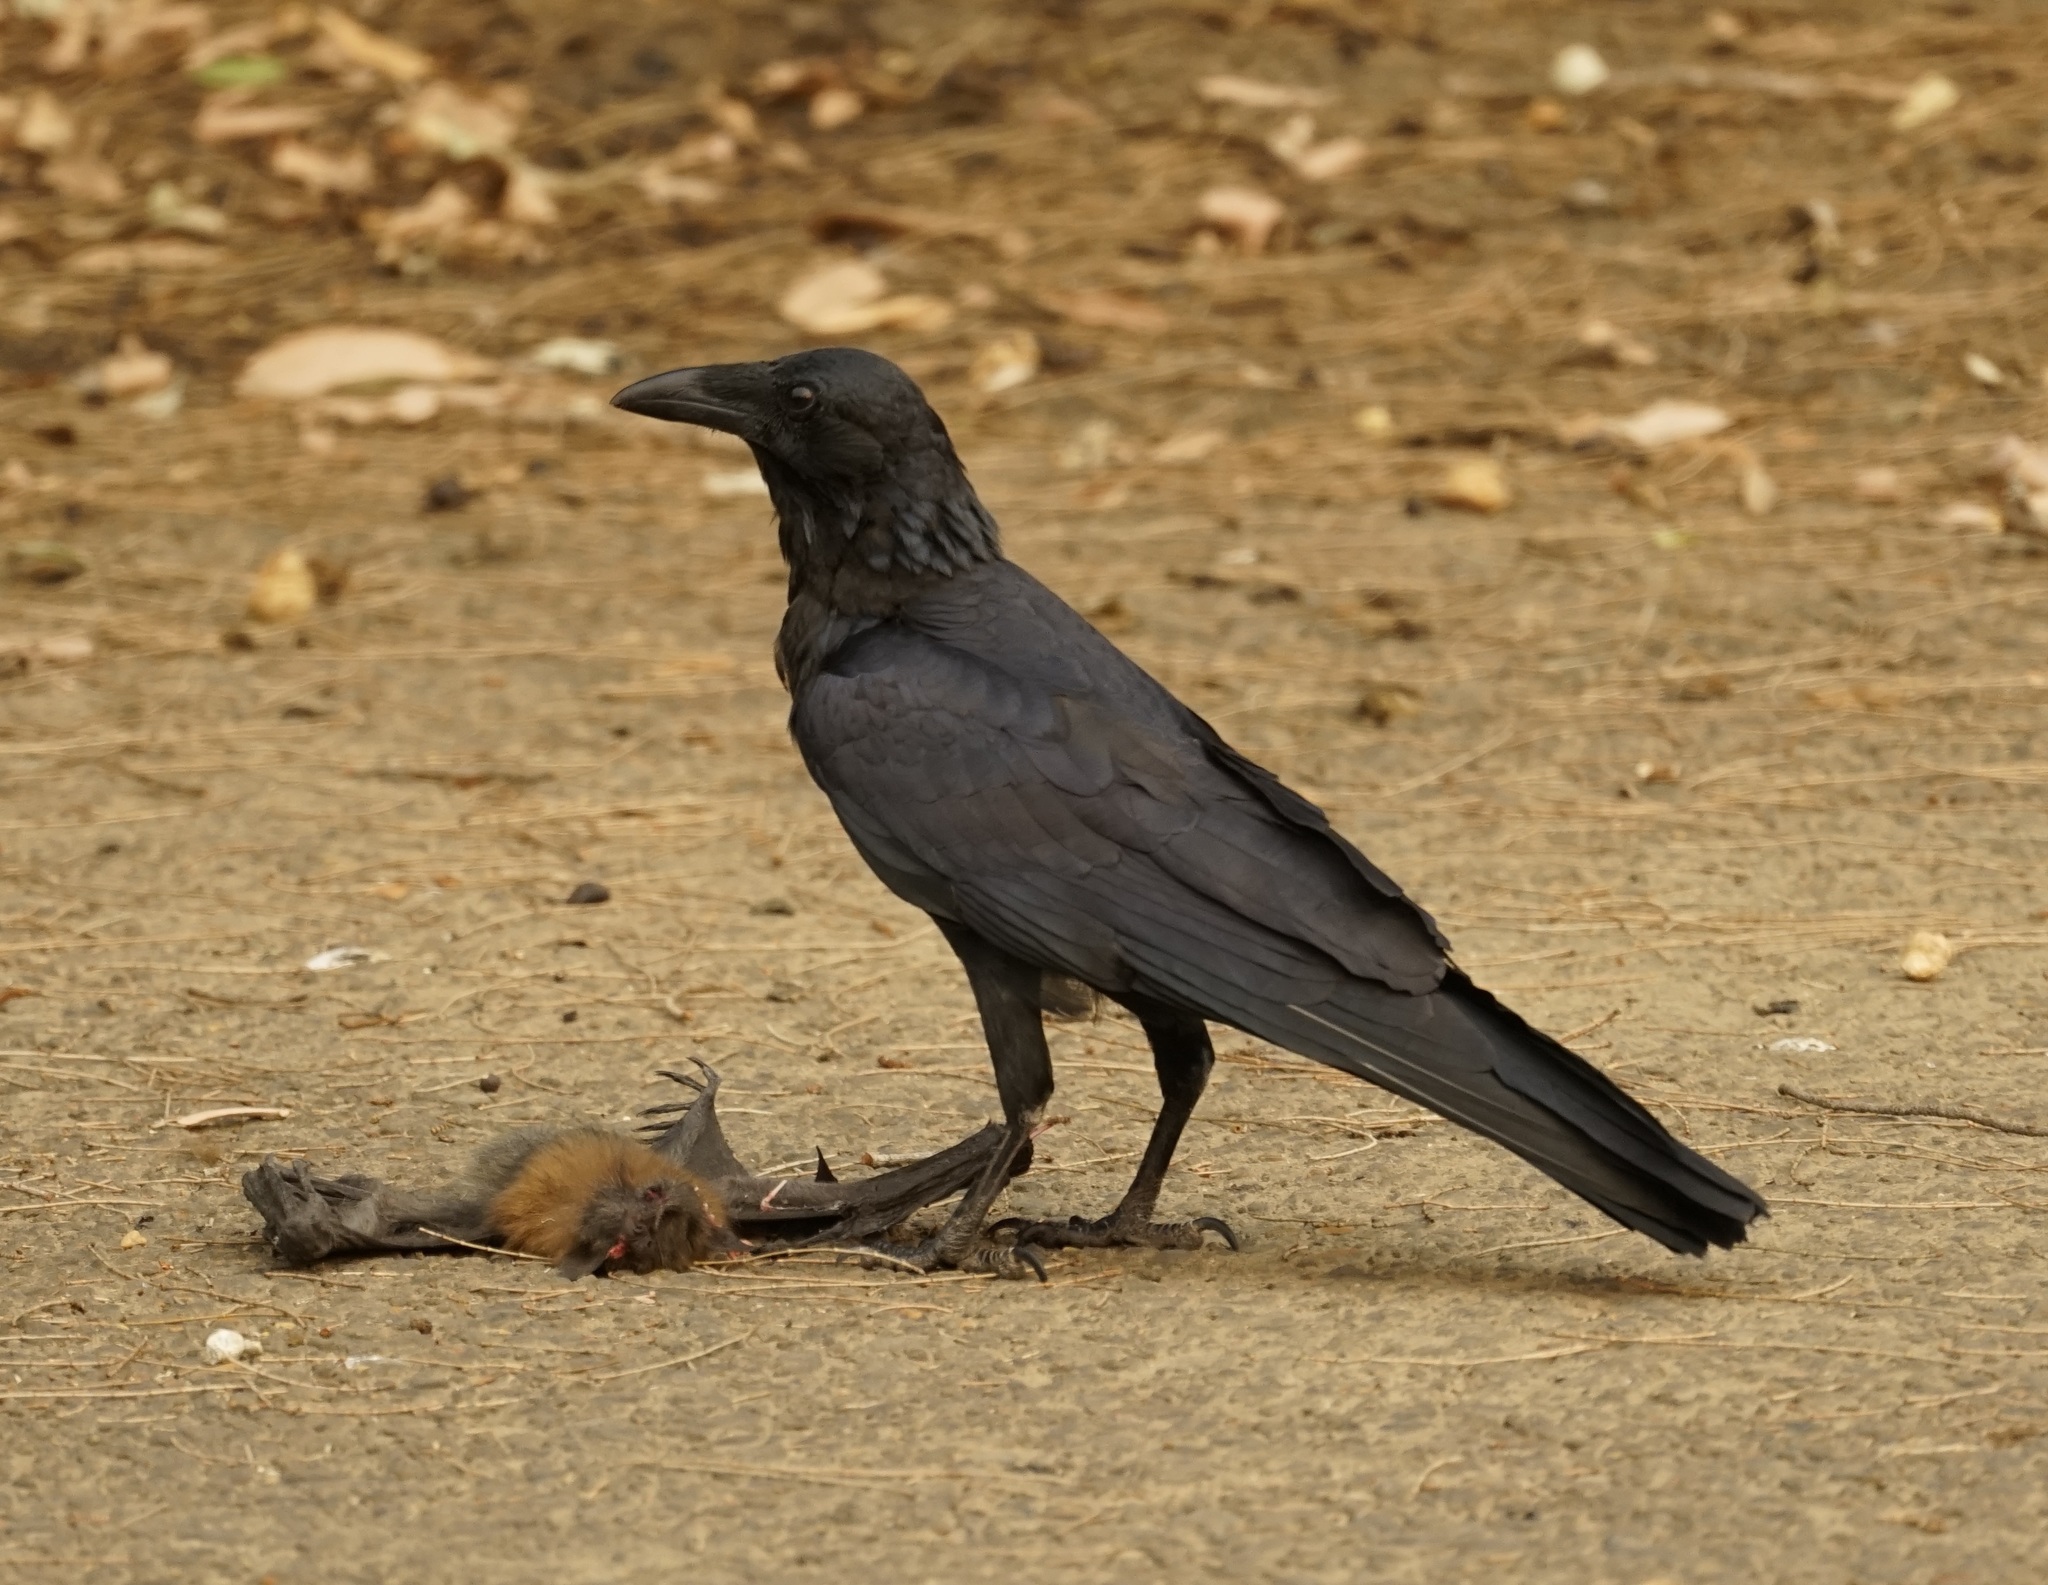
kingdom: Animalia
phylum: Chordata
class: Aves
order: Passeriformes
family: Corvidae
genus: Corvus
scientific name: Corvus coronoides
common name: Australian raven
